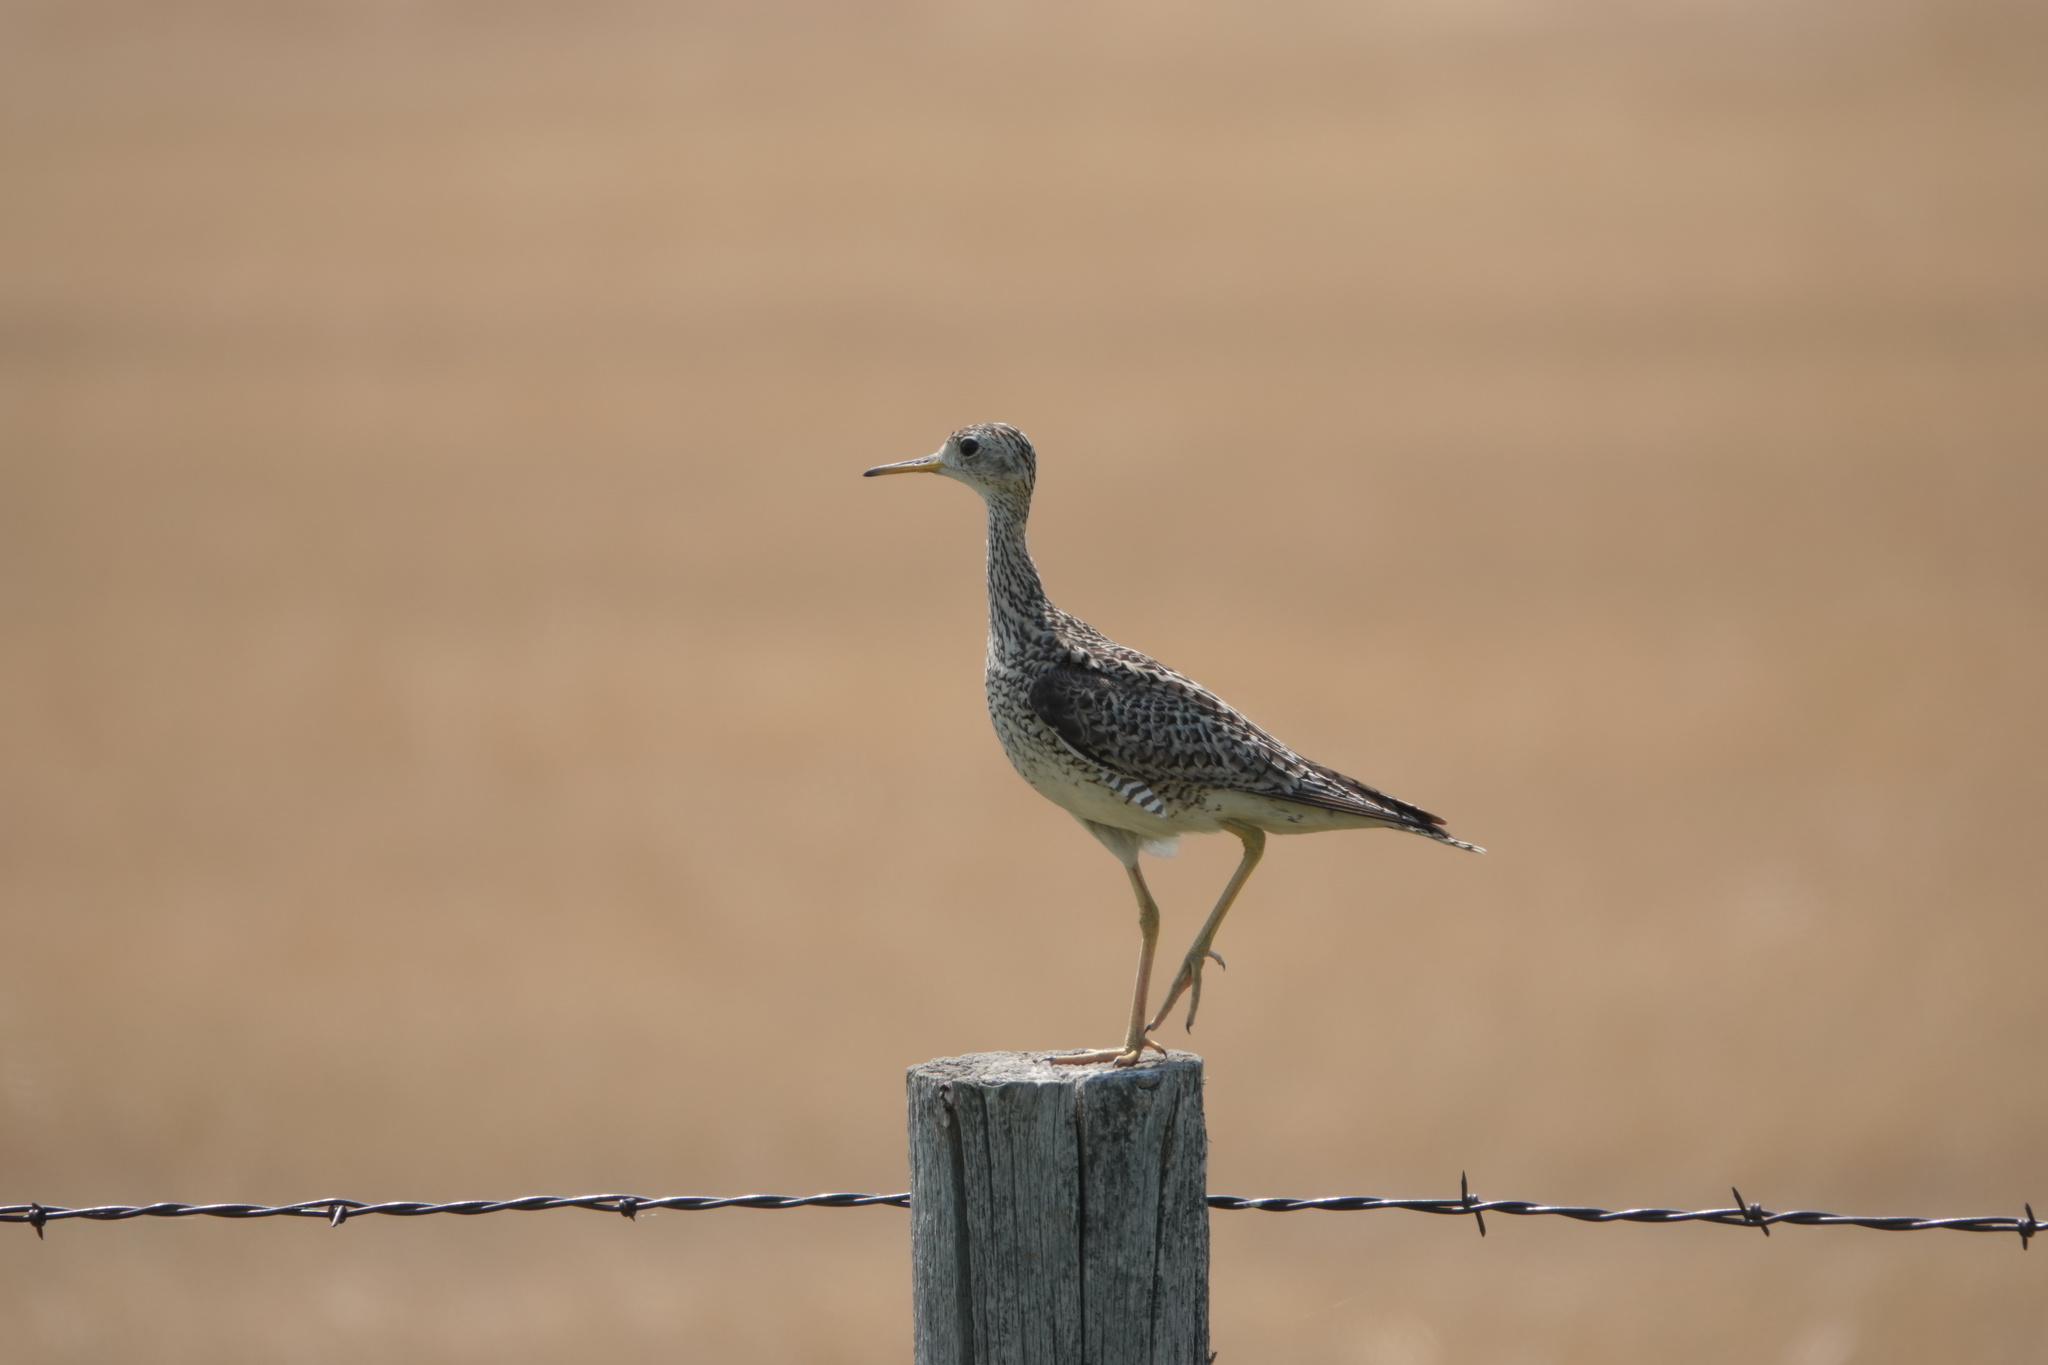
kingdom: Animalia
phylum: Chordata
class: Aves
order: Charadriiformes
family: Scolopacidae
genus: Bartramia
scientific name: Bartramia longicauda
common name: Upland sandpiper
